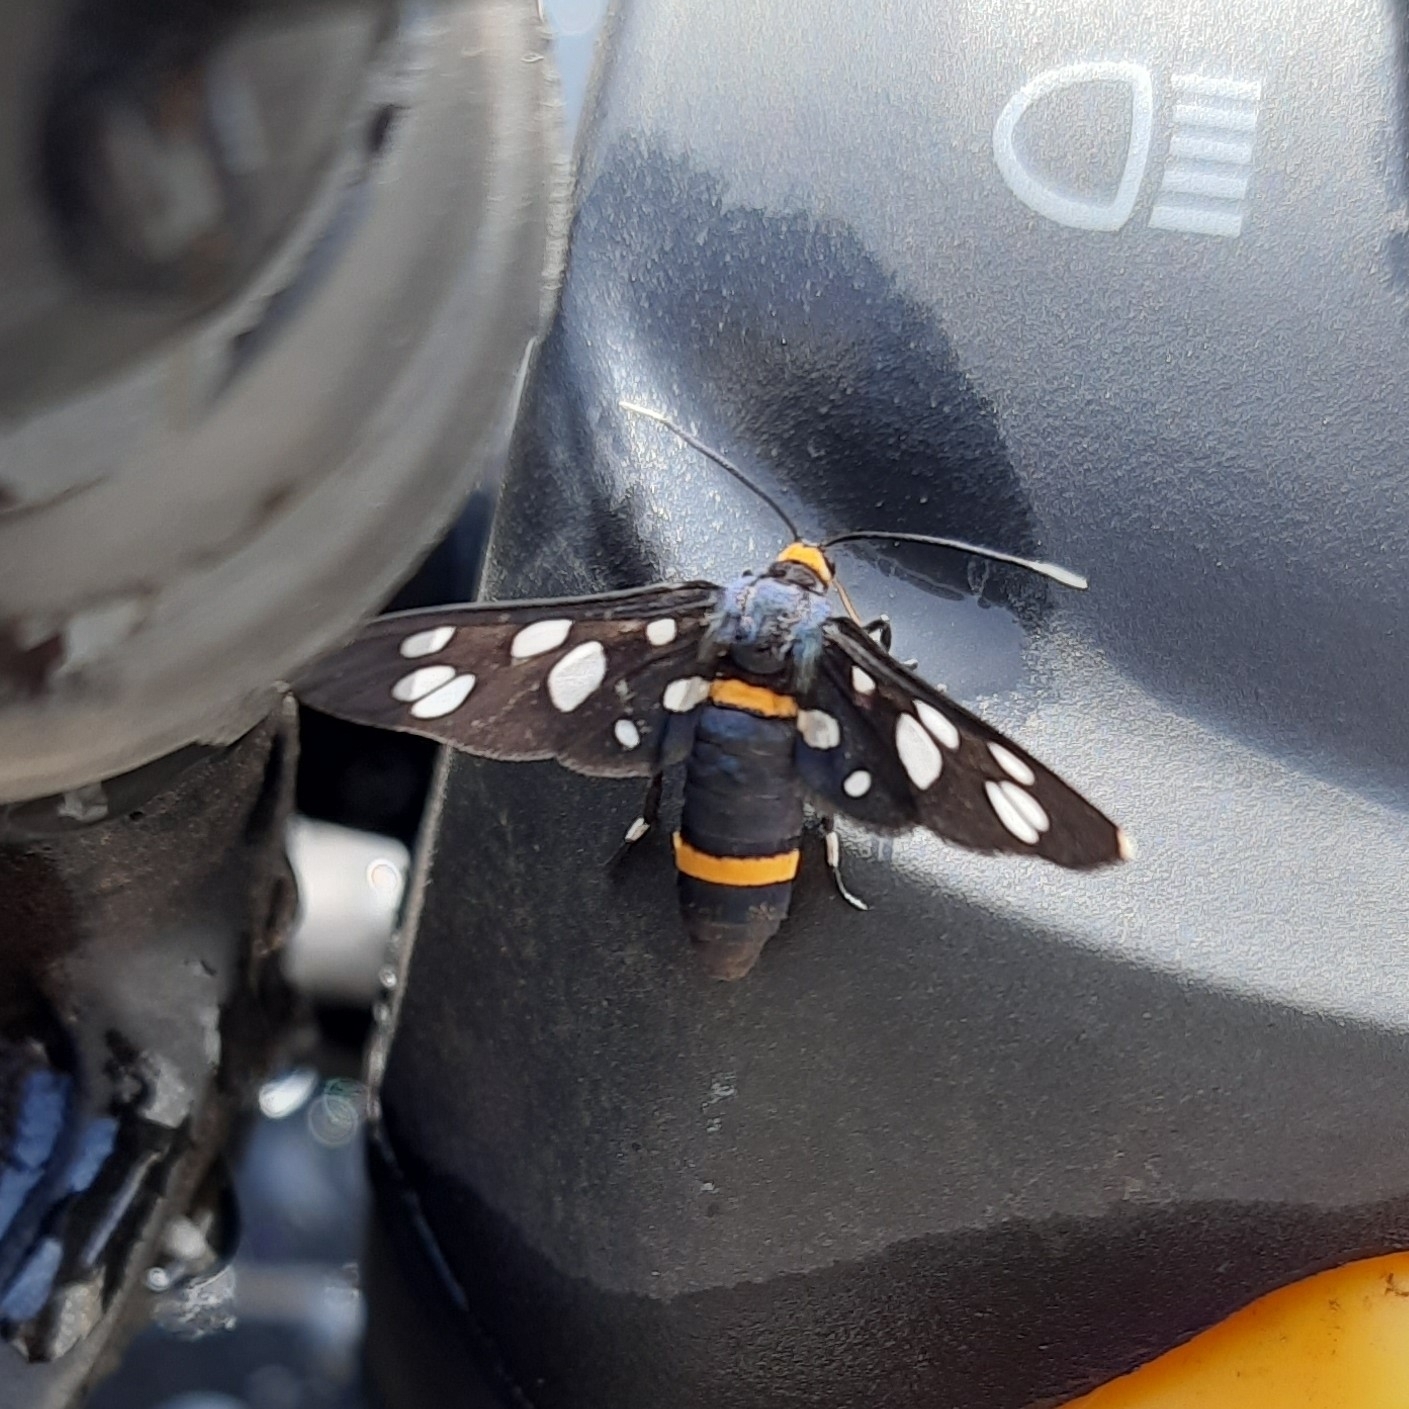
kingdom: Animalia
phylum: Arthropoda
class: Insecta
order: Lepidoptera
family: Erebidae
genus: Amata
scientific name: Amata cyssea
